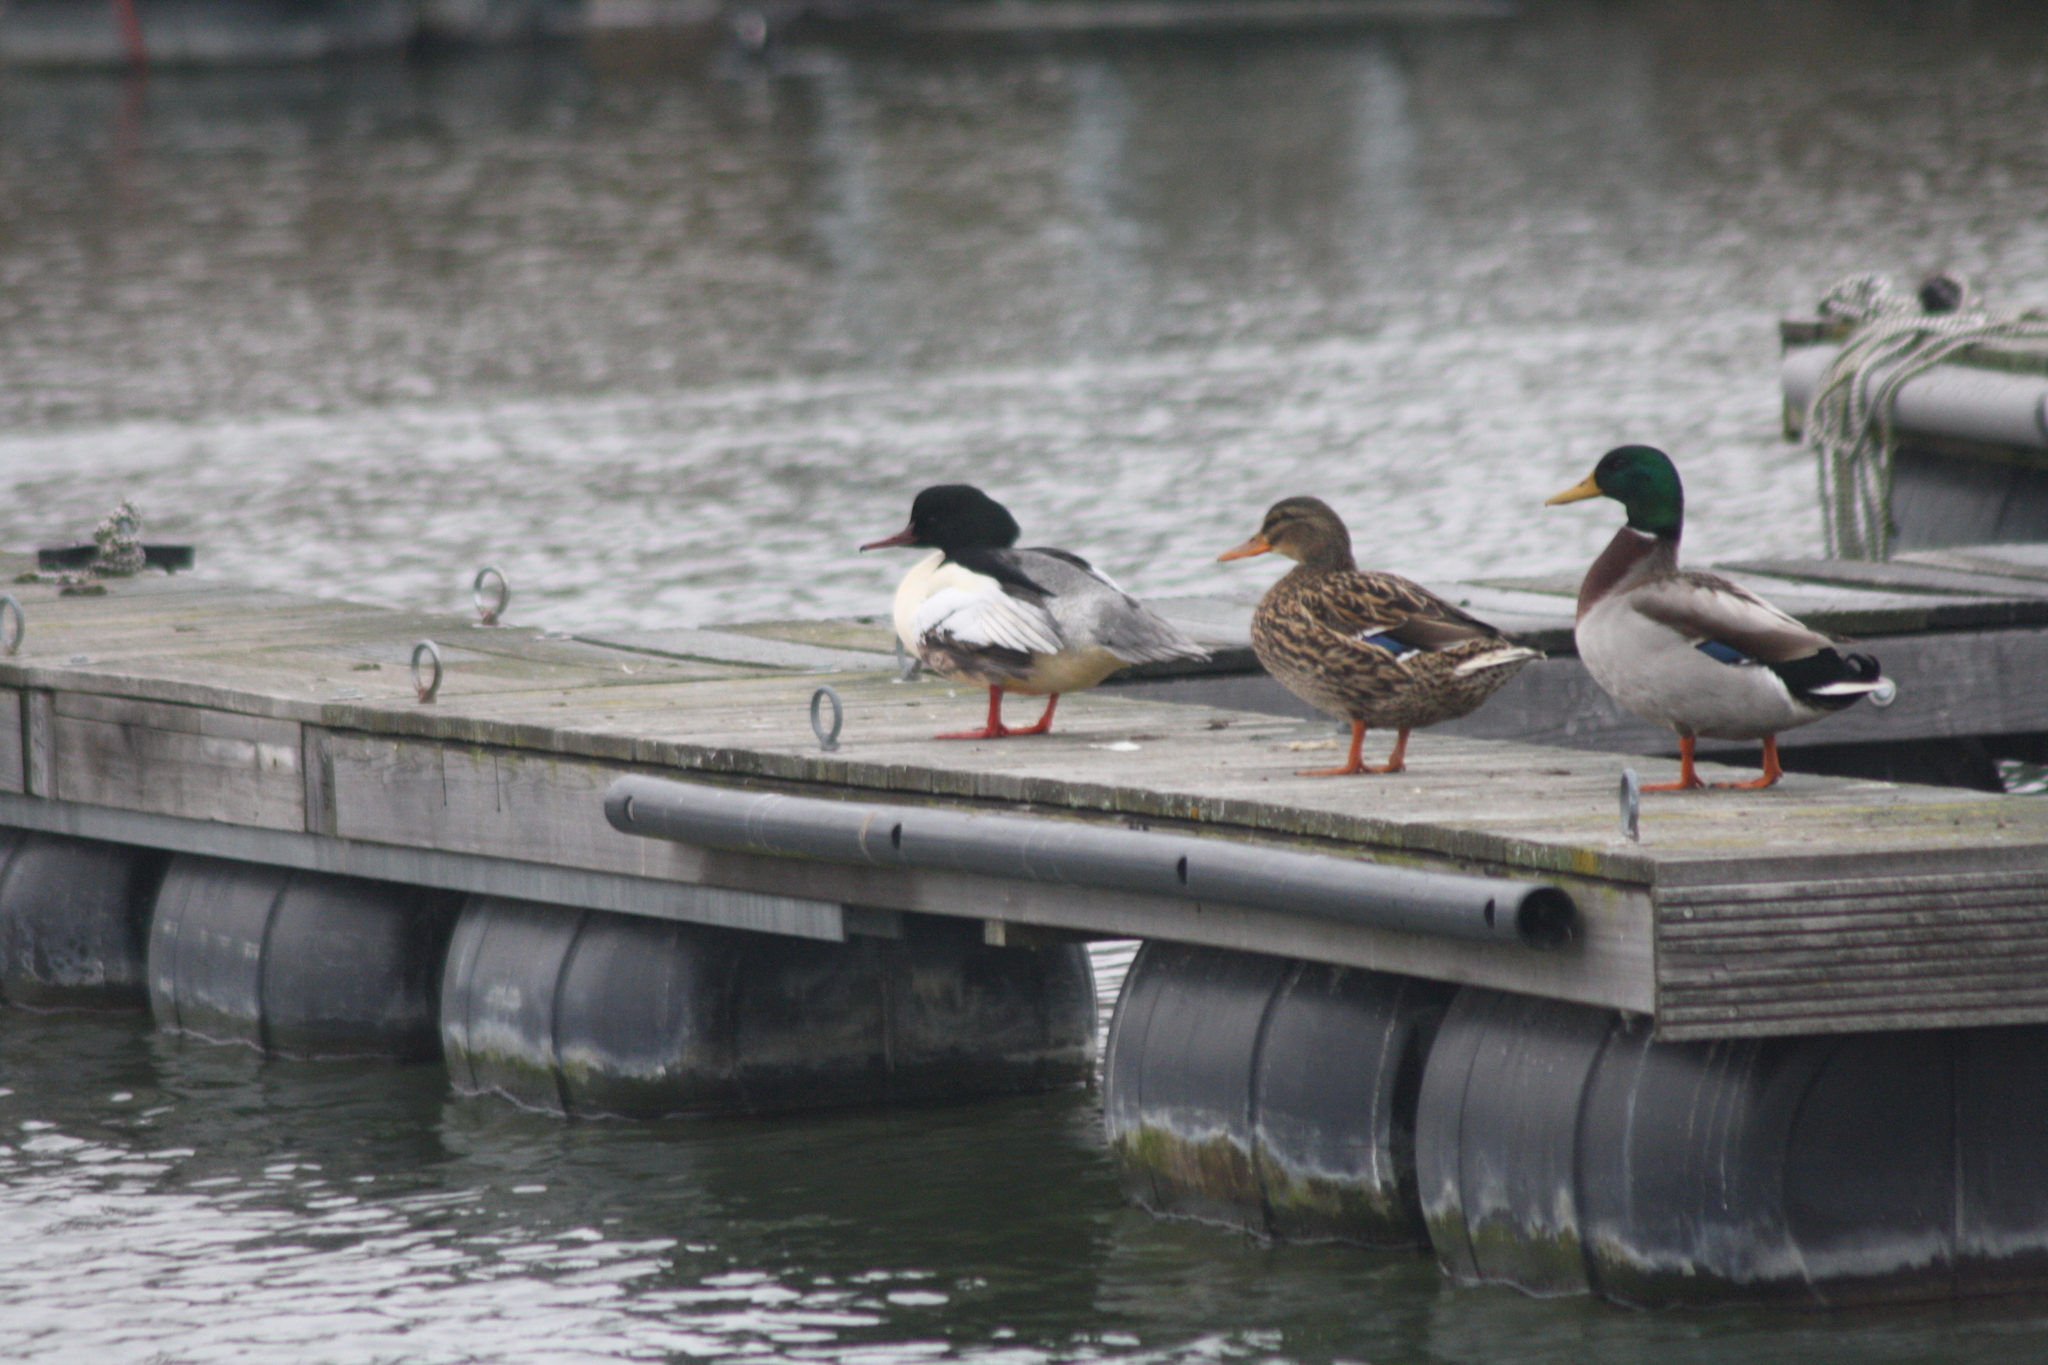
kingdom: Animalia
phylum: Chordata
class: Aves
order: Anseriformes
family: Anatidae
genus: Mergus
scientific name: Mergus merganser
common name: Common merganser
